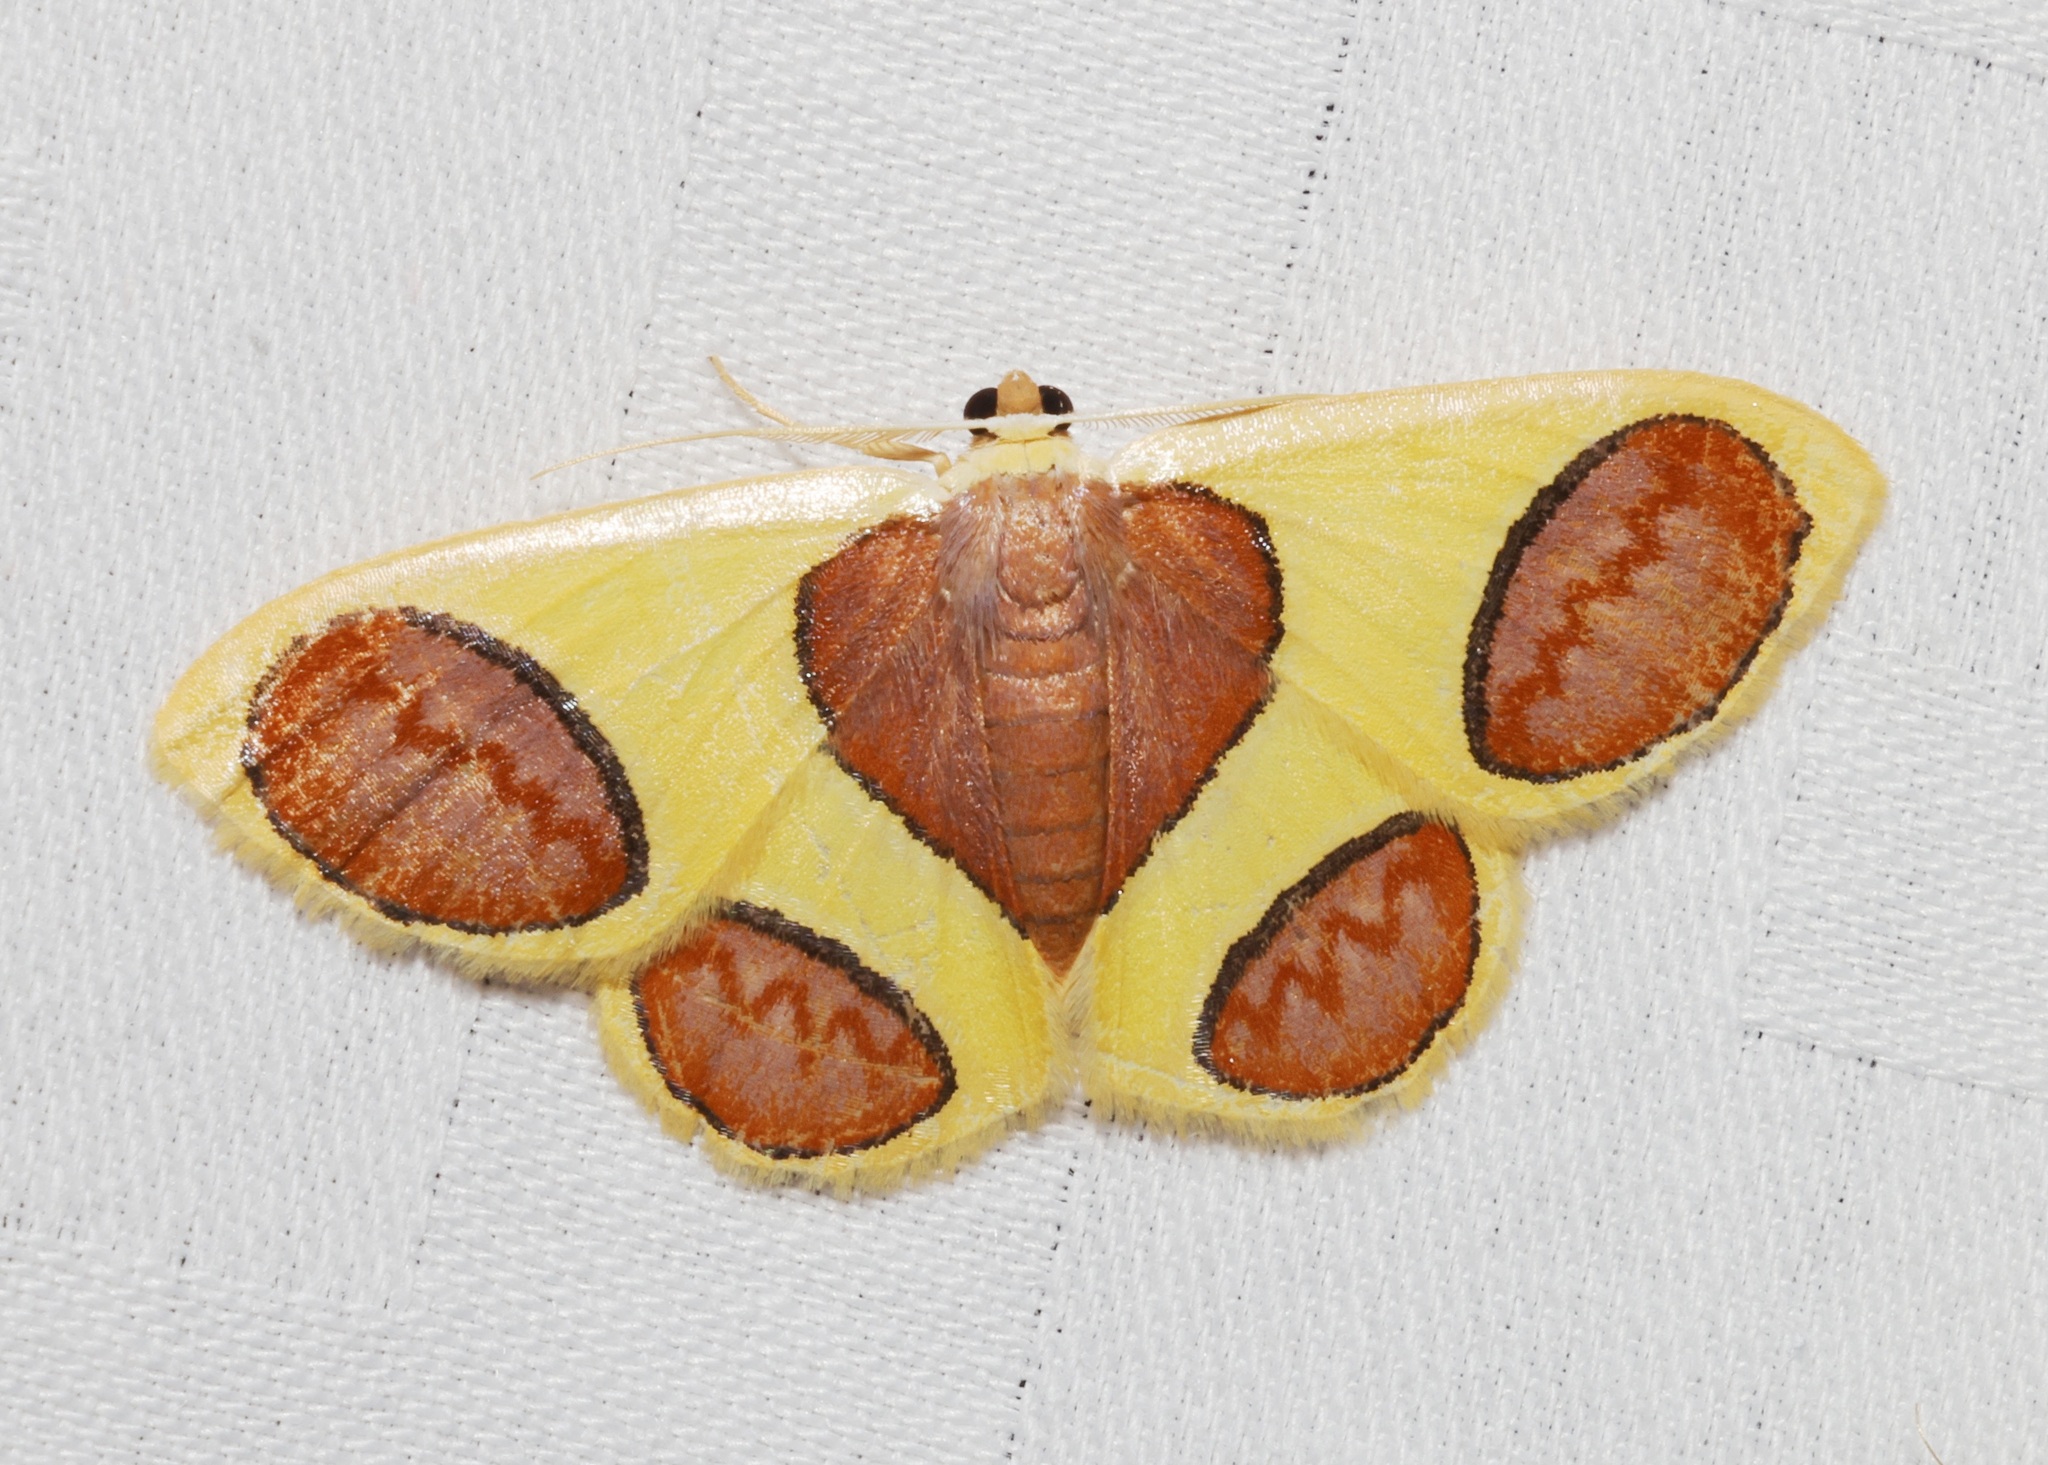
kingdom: Animalia
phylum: Arthropoda
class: Insecta
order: Lepidoptera
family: Geometridae
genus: Plutodes
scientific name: Plutodes flavescens
